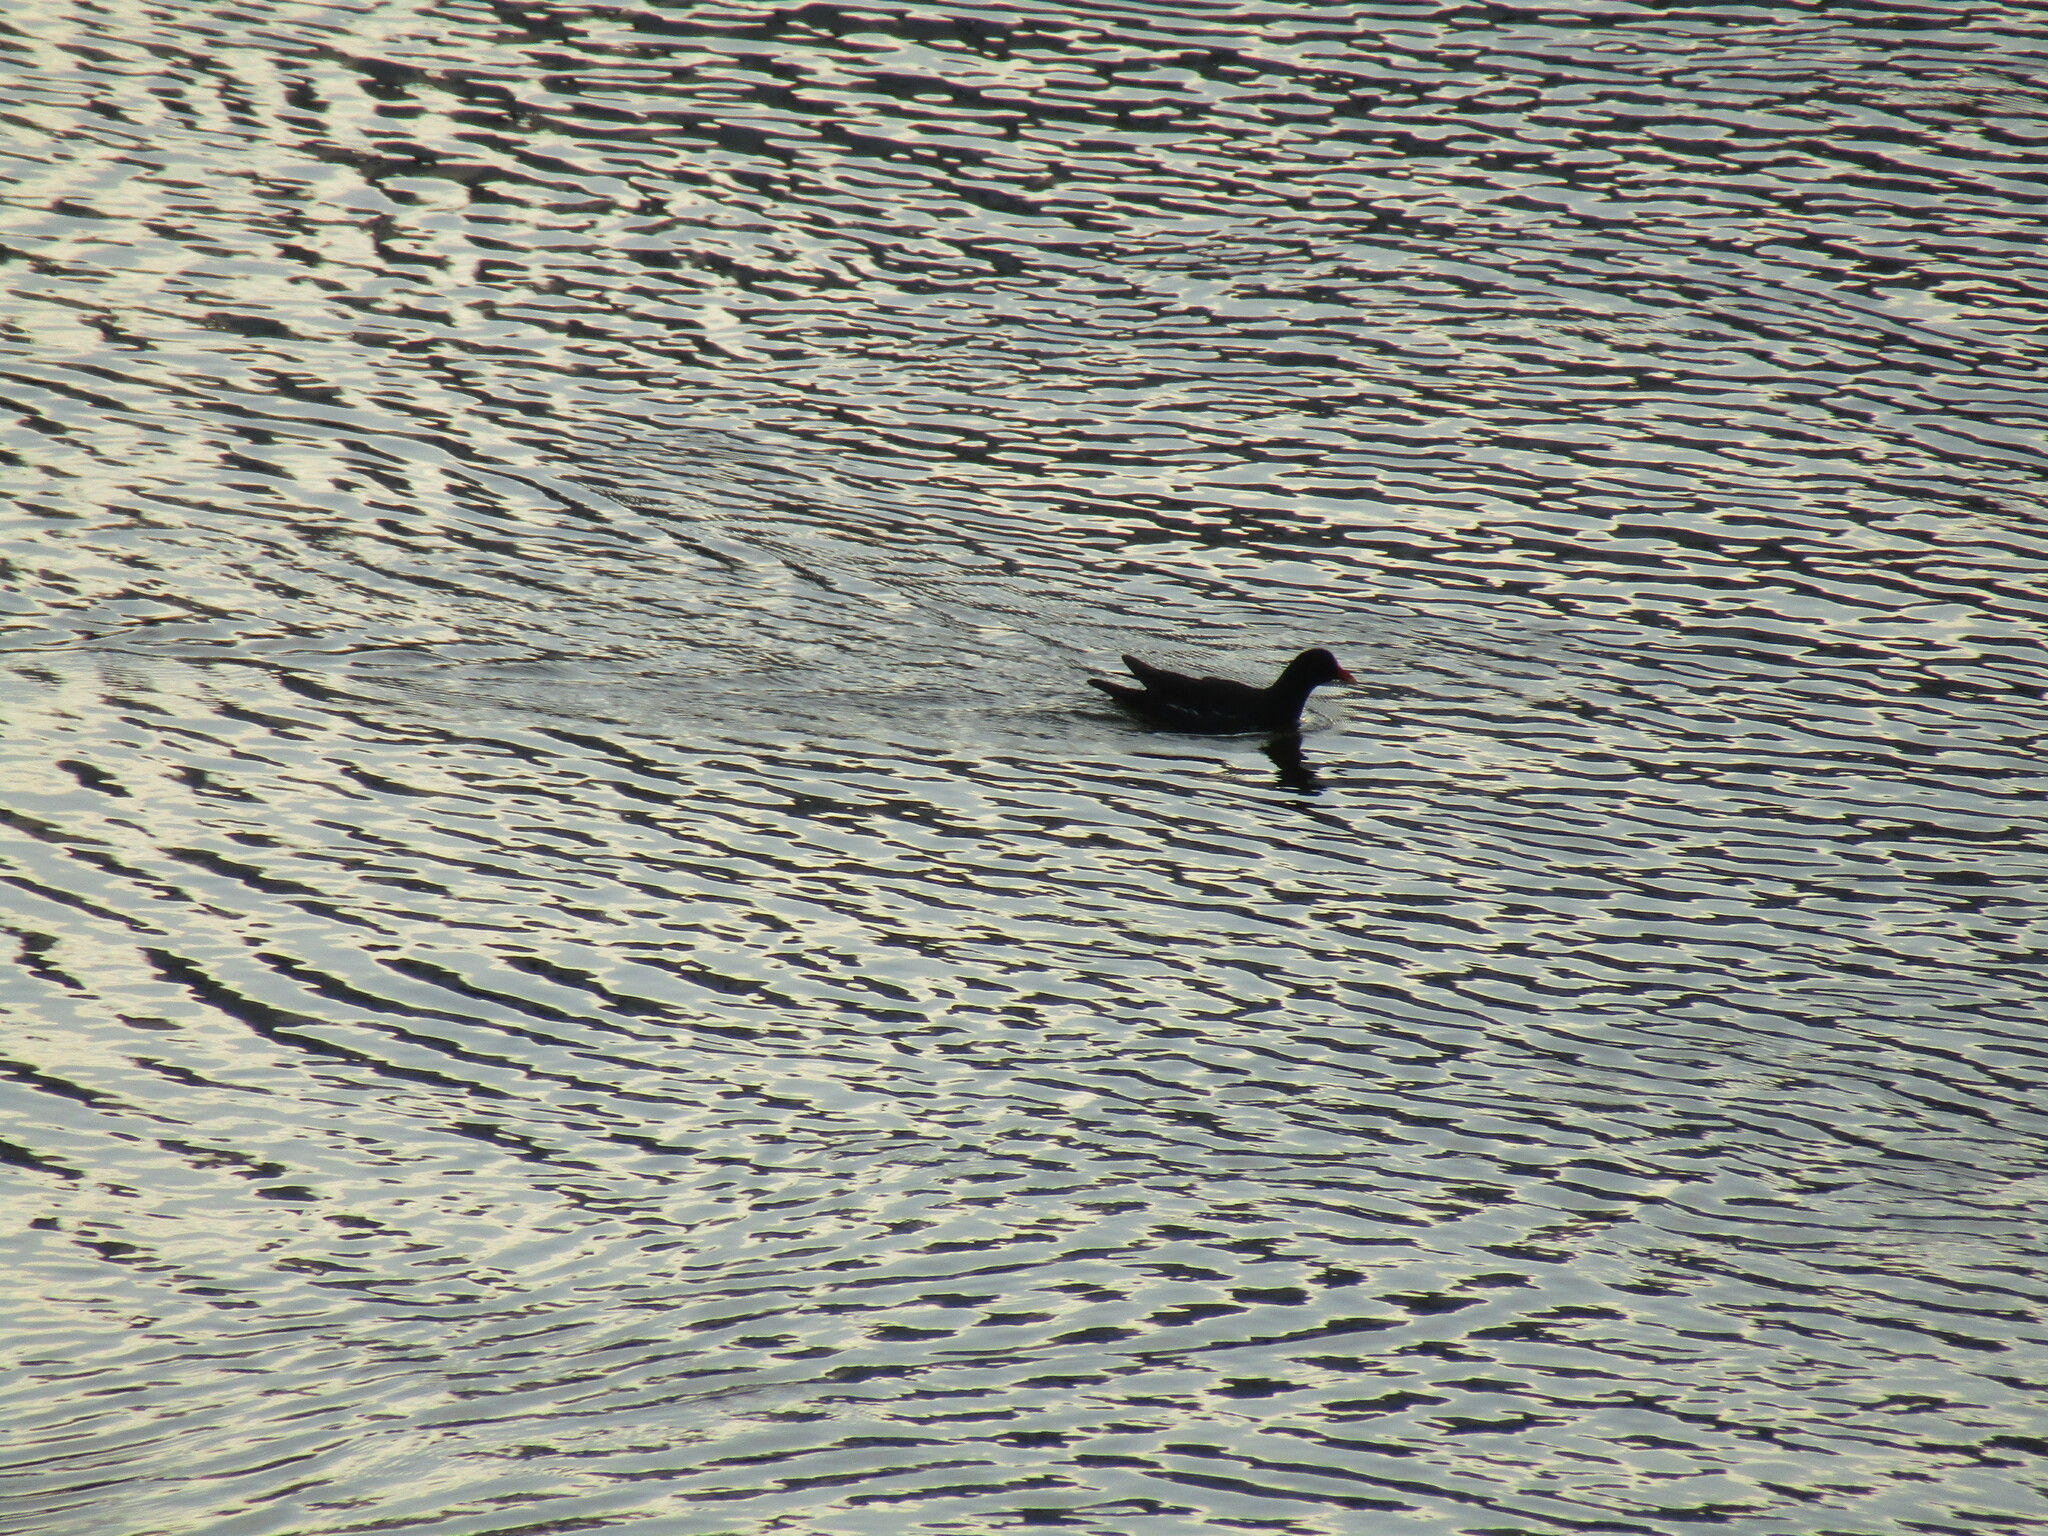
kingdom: Animalia
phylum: Chordata
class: Aves
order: Gruiformes
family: Rallidae
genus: Gallinula
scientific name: Gallinula chloropus
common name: Common moorhen
